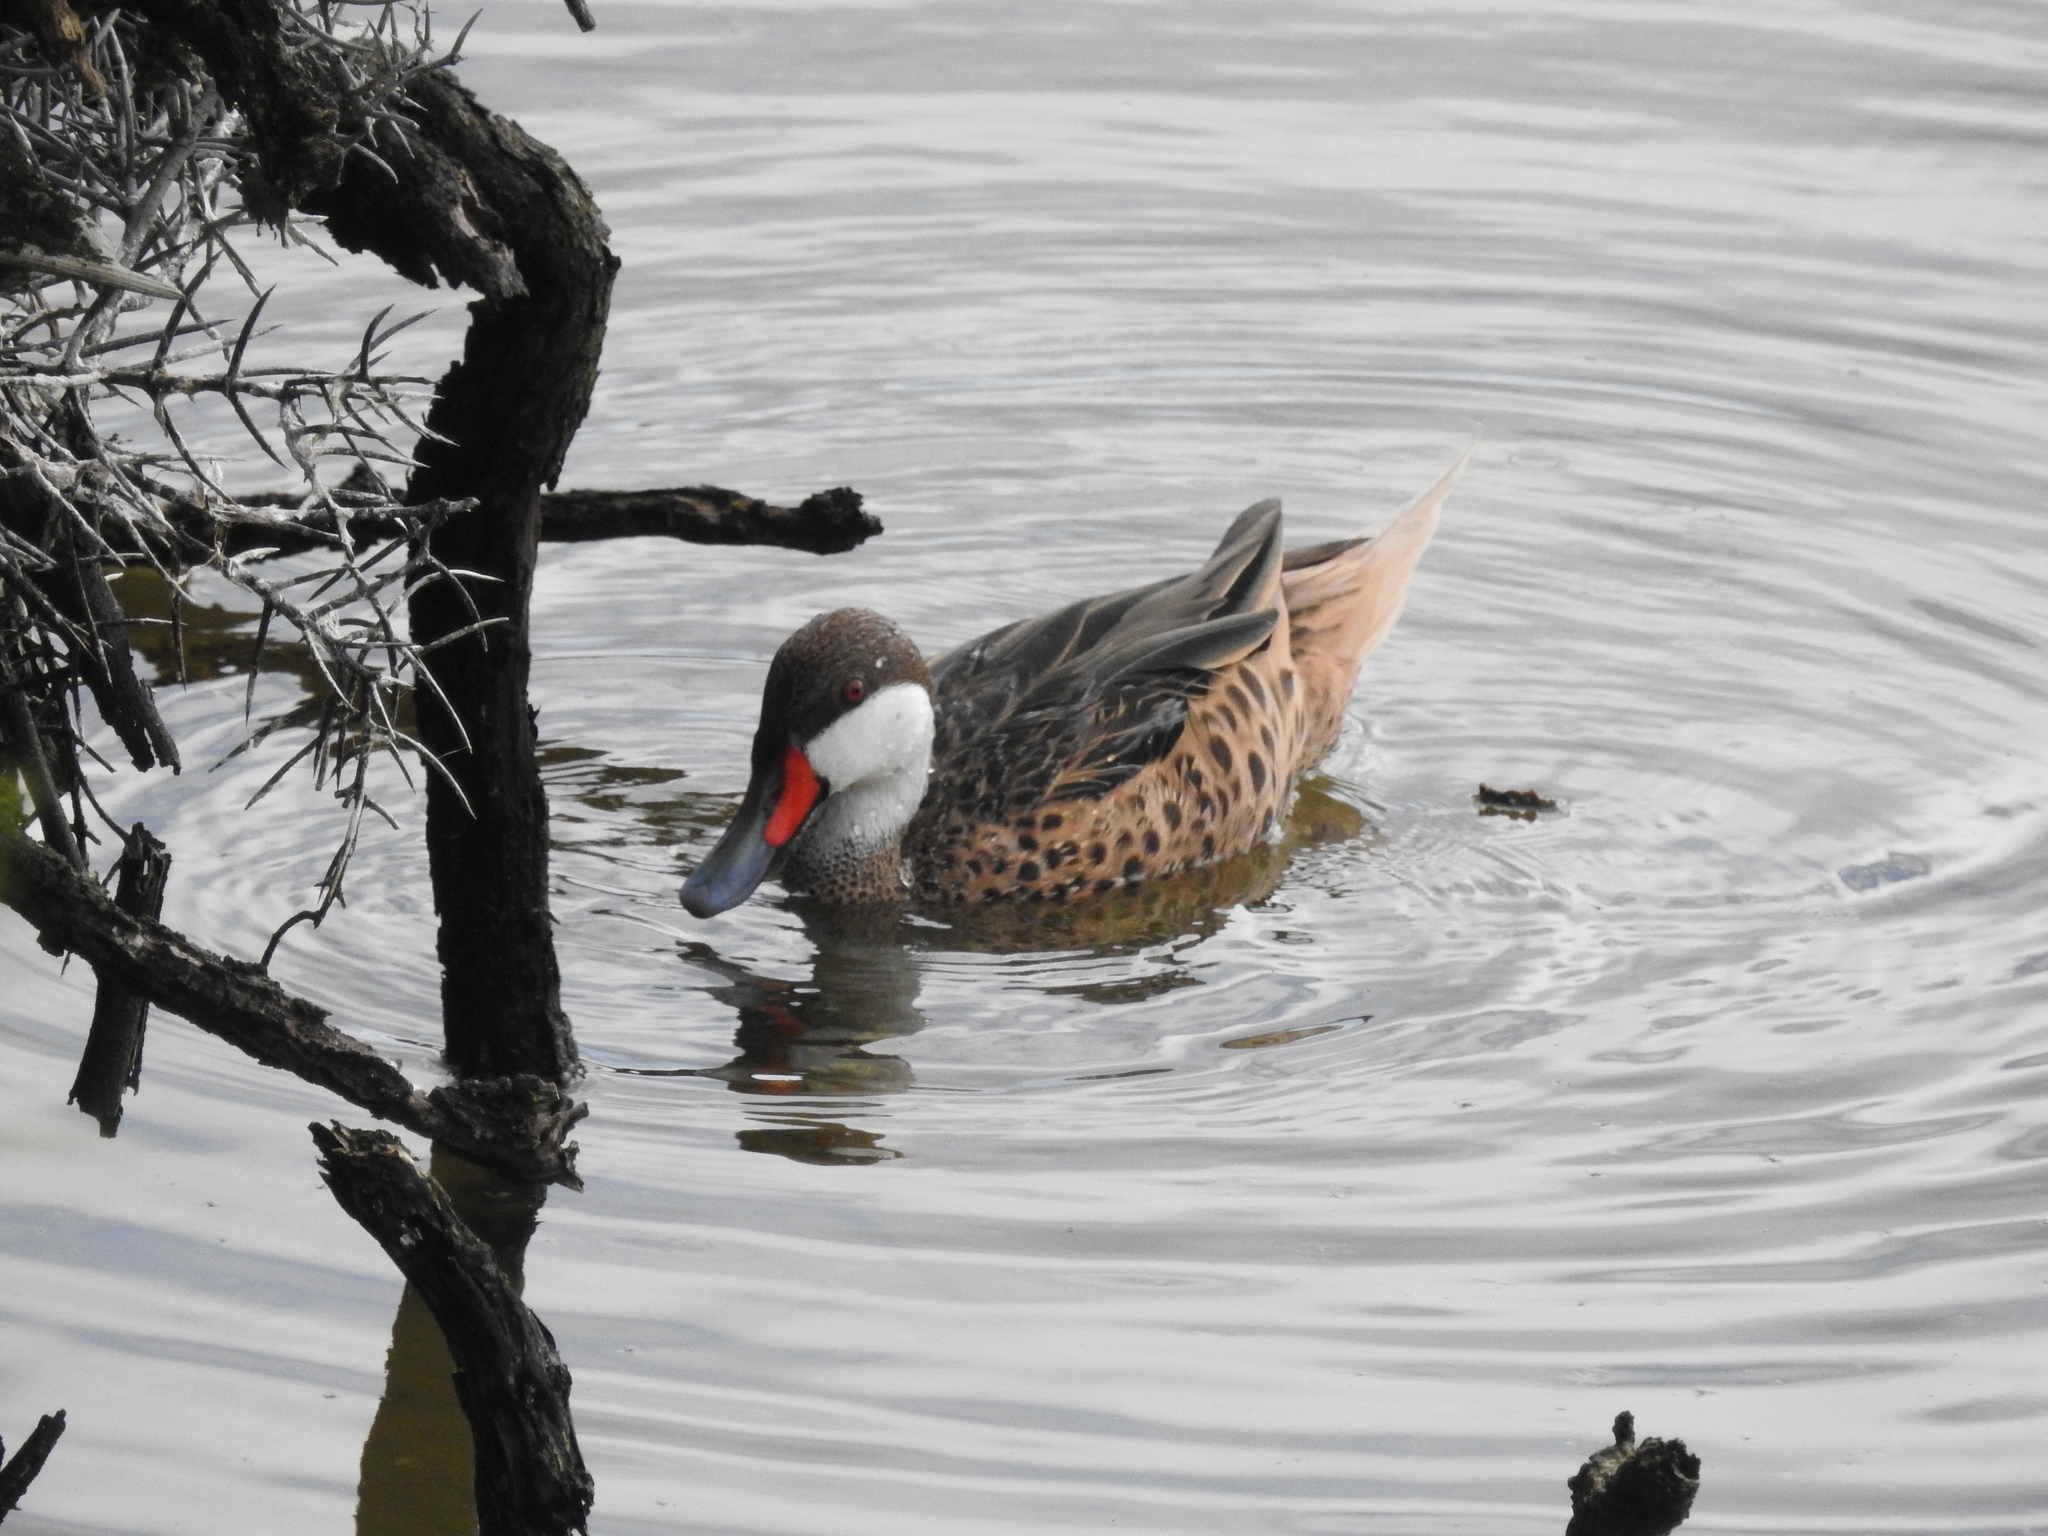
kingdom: Animalia
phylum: Chordata
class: Aves
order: Anseriformes
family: Anatidae
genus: Anas
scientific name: Anas bahamensis
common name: White-cheeked pintail
